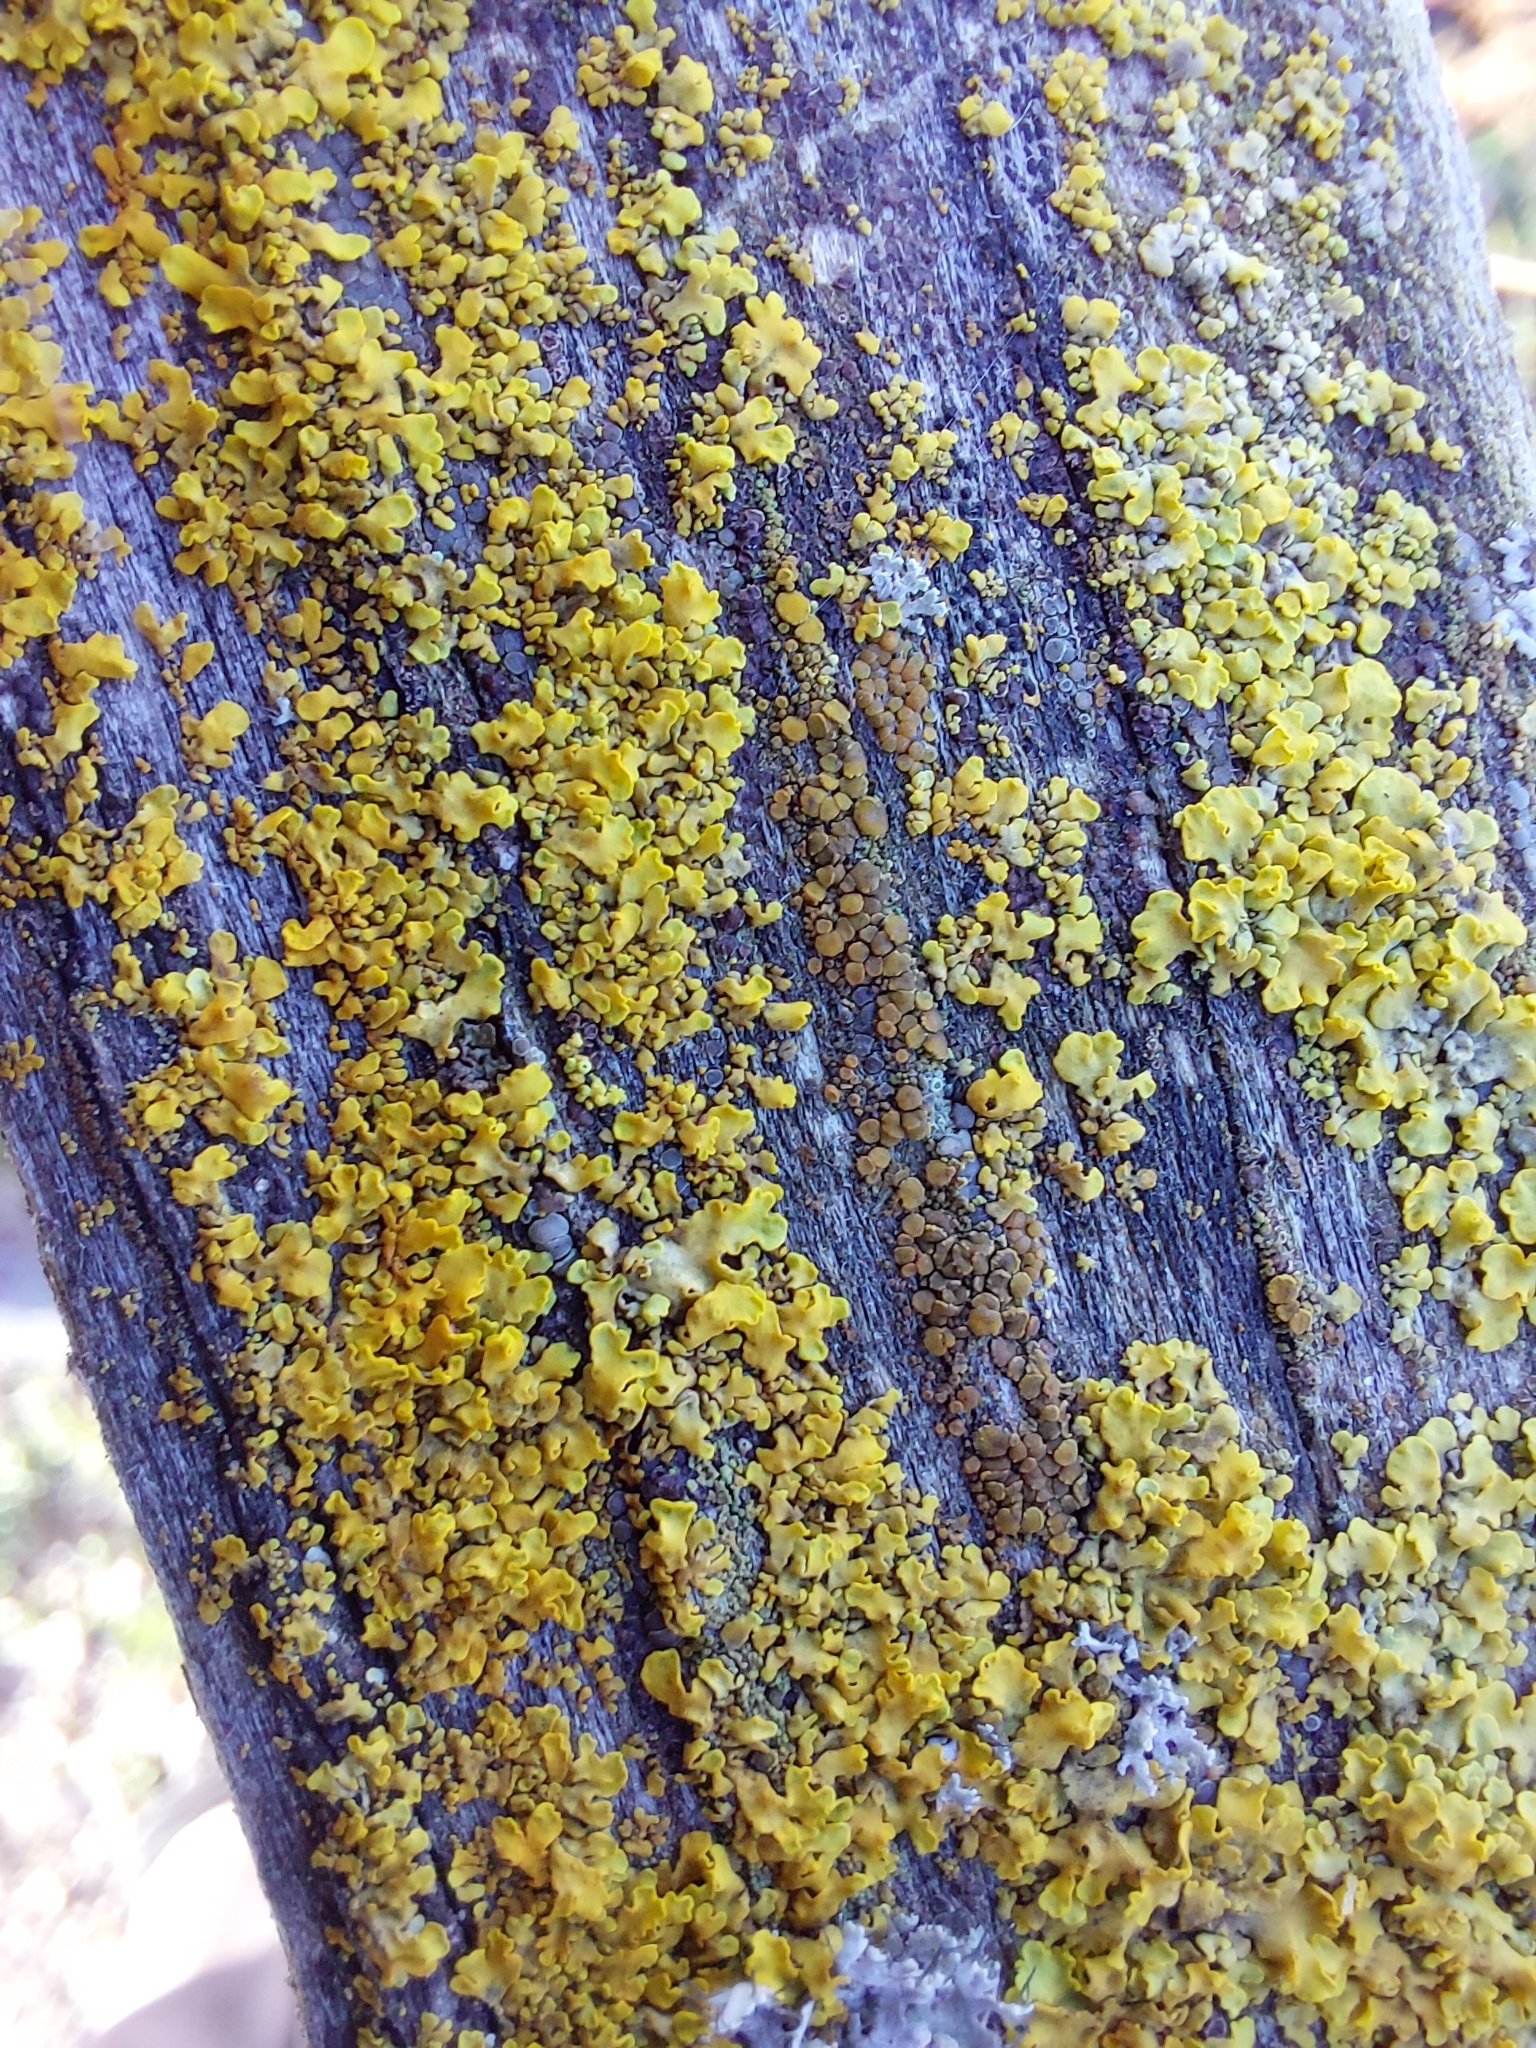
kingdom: Fungi
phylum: Ascomycota
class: Lecanoromycetes
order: Teloschistales
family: Teloschistaceae
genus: Xanthoria
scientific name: Xanthoria parietina
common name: Common orange lichen
